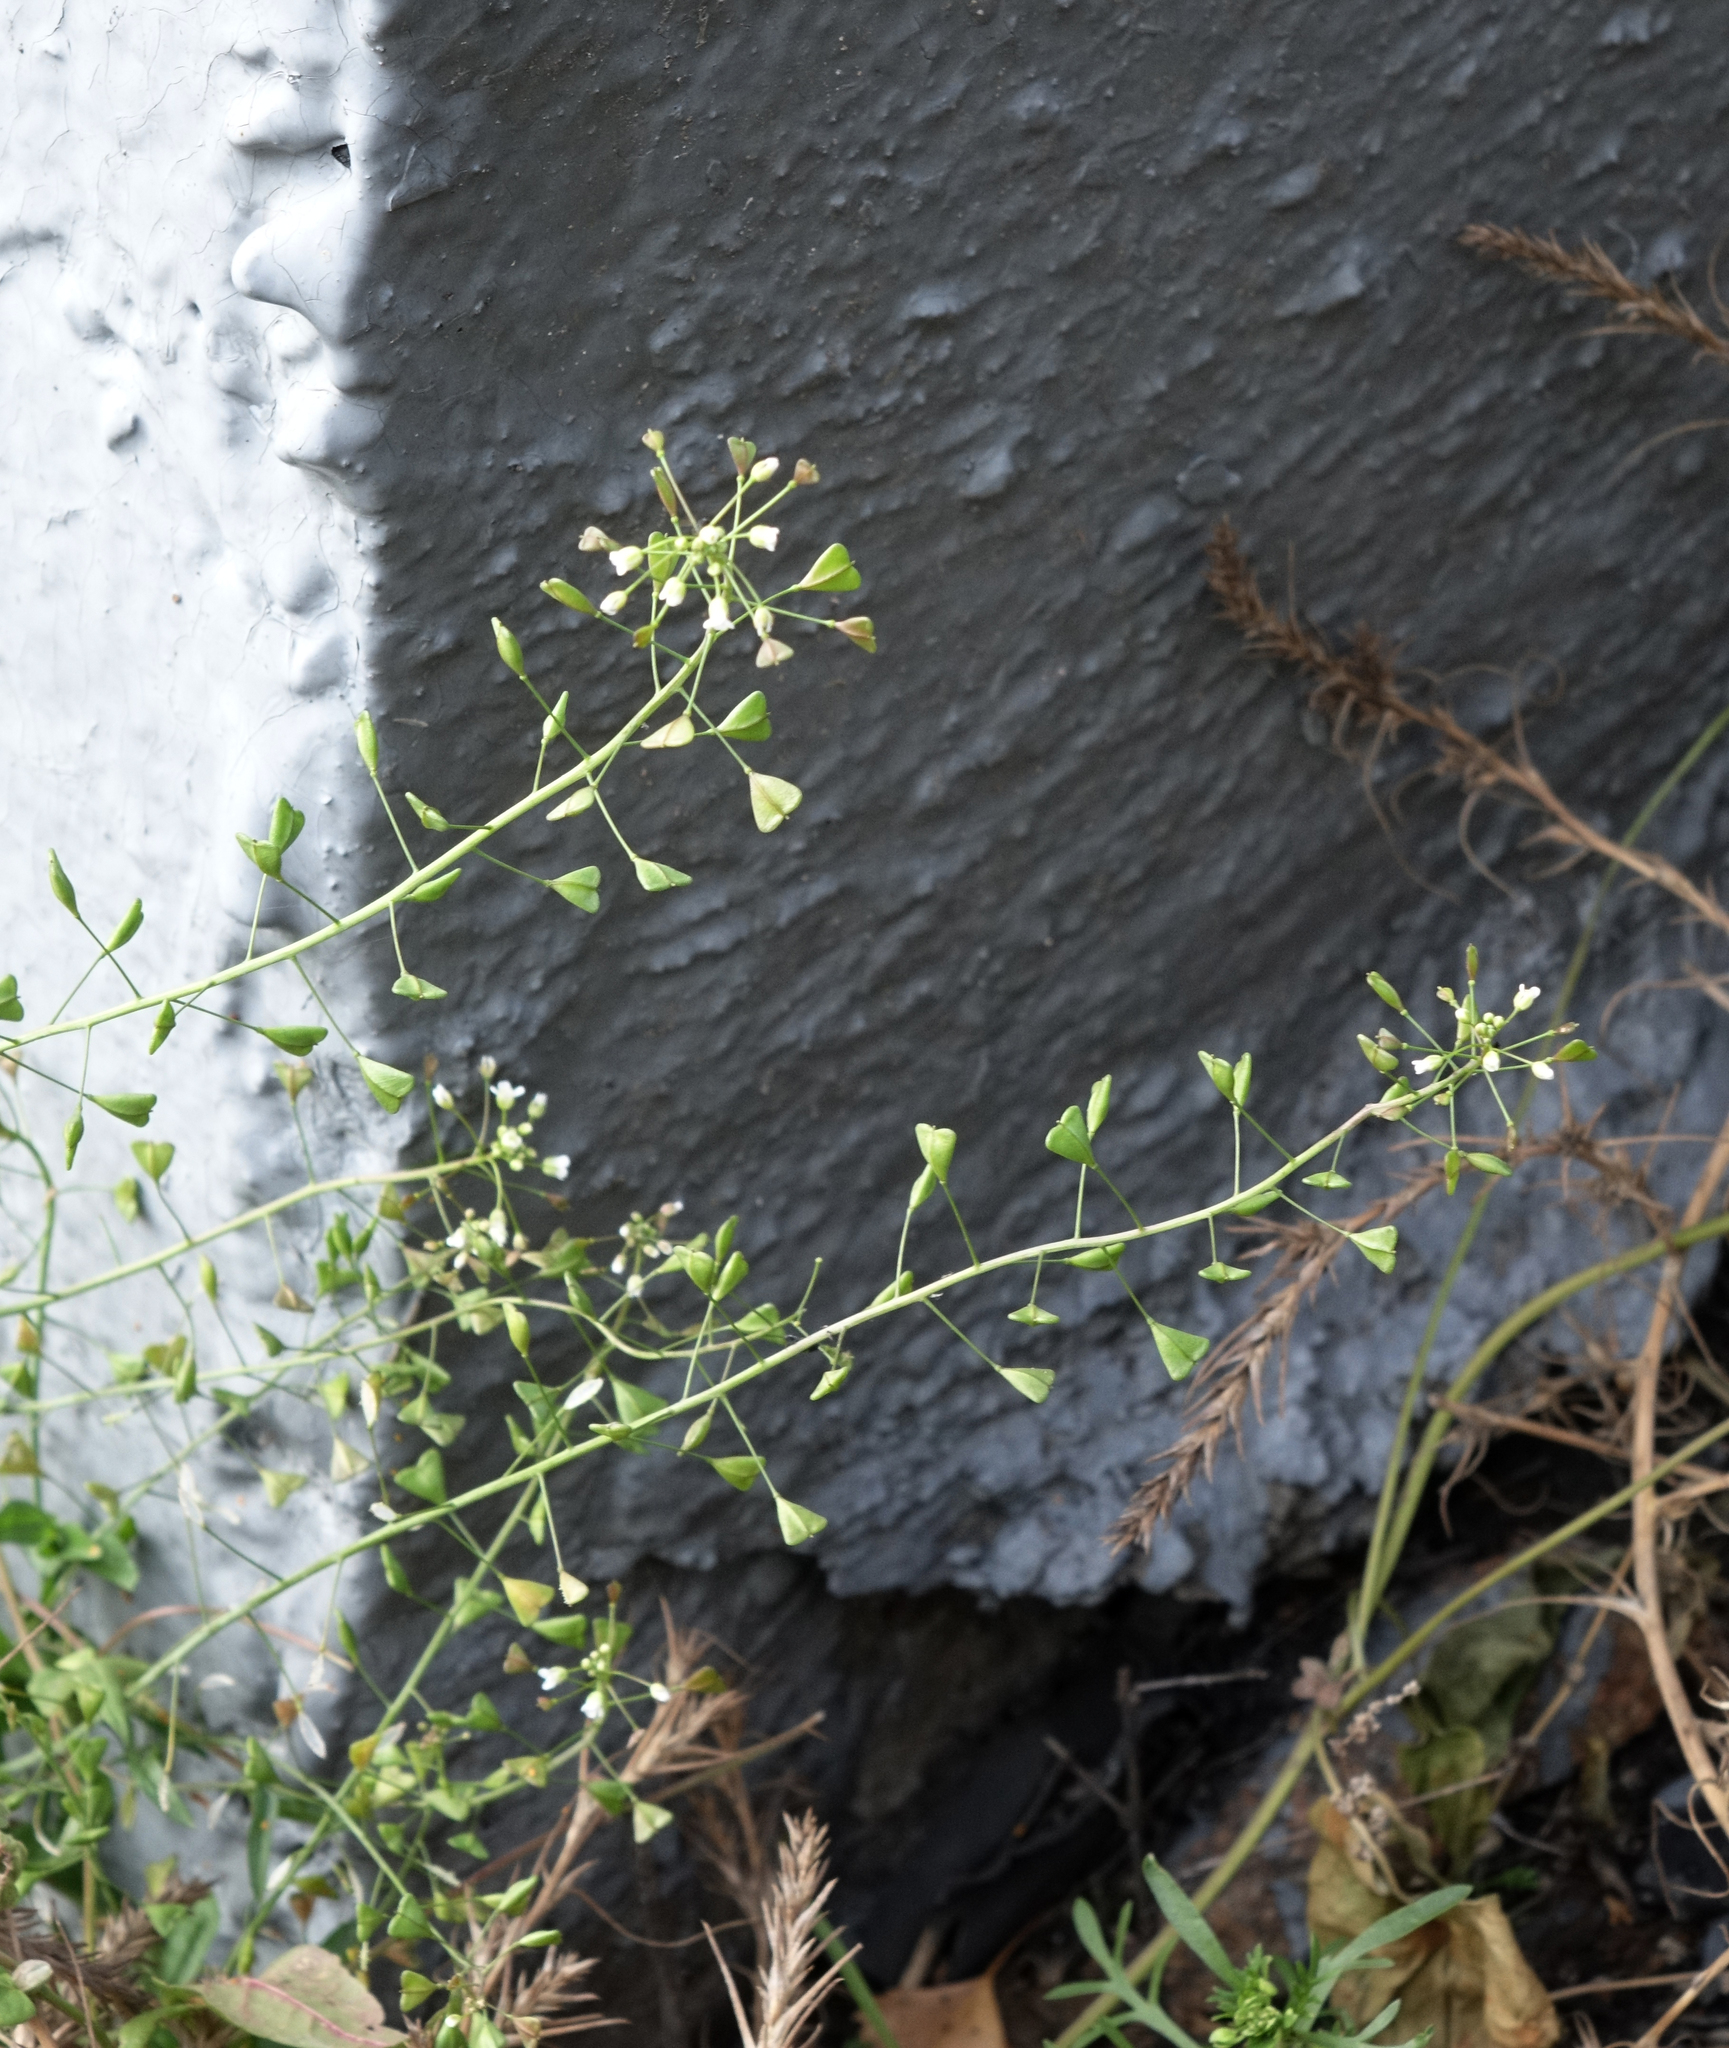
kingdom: Plantae
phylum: Tracheophyta
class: Magnoliopsida
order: Brassicales
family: Brassicaceae
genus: Capsella
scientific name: Capsella bursa-pastoris
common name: Shepherd's purse
